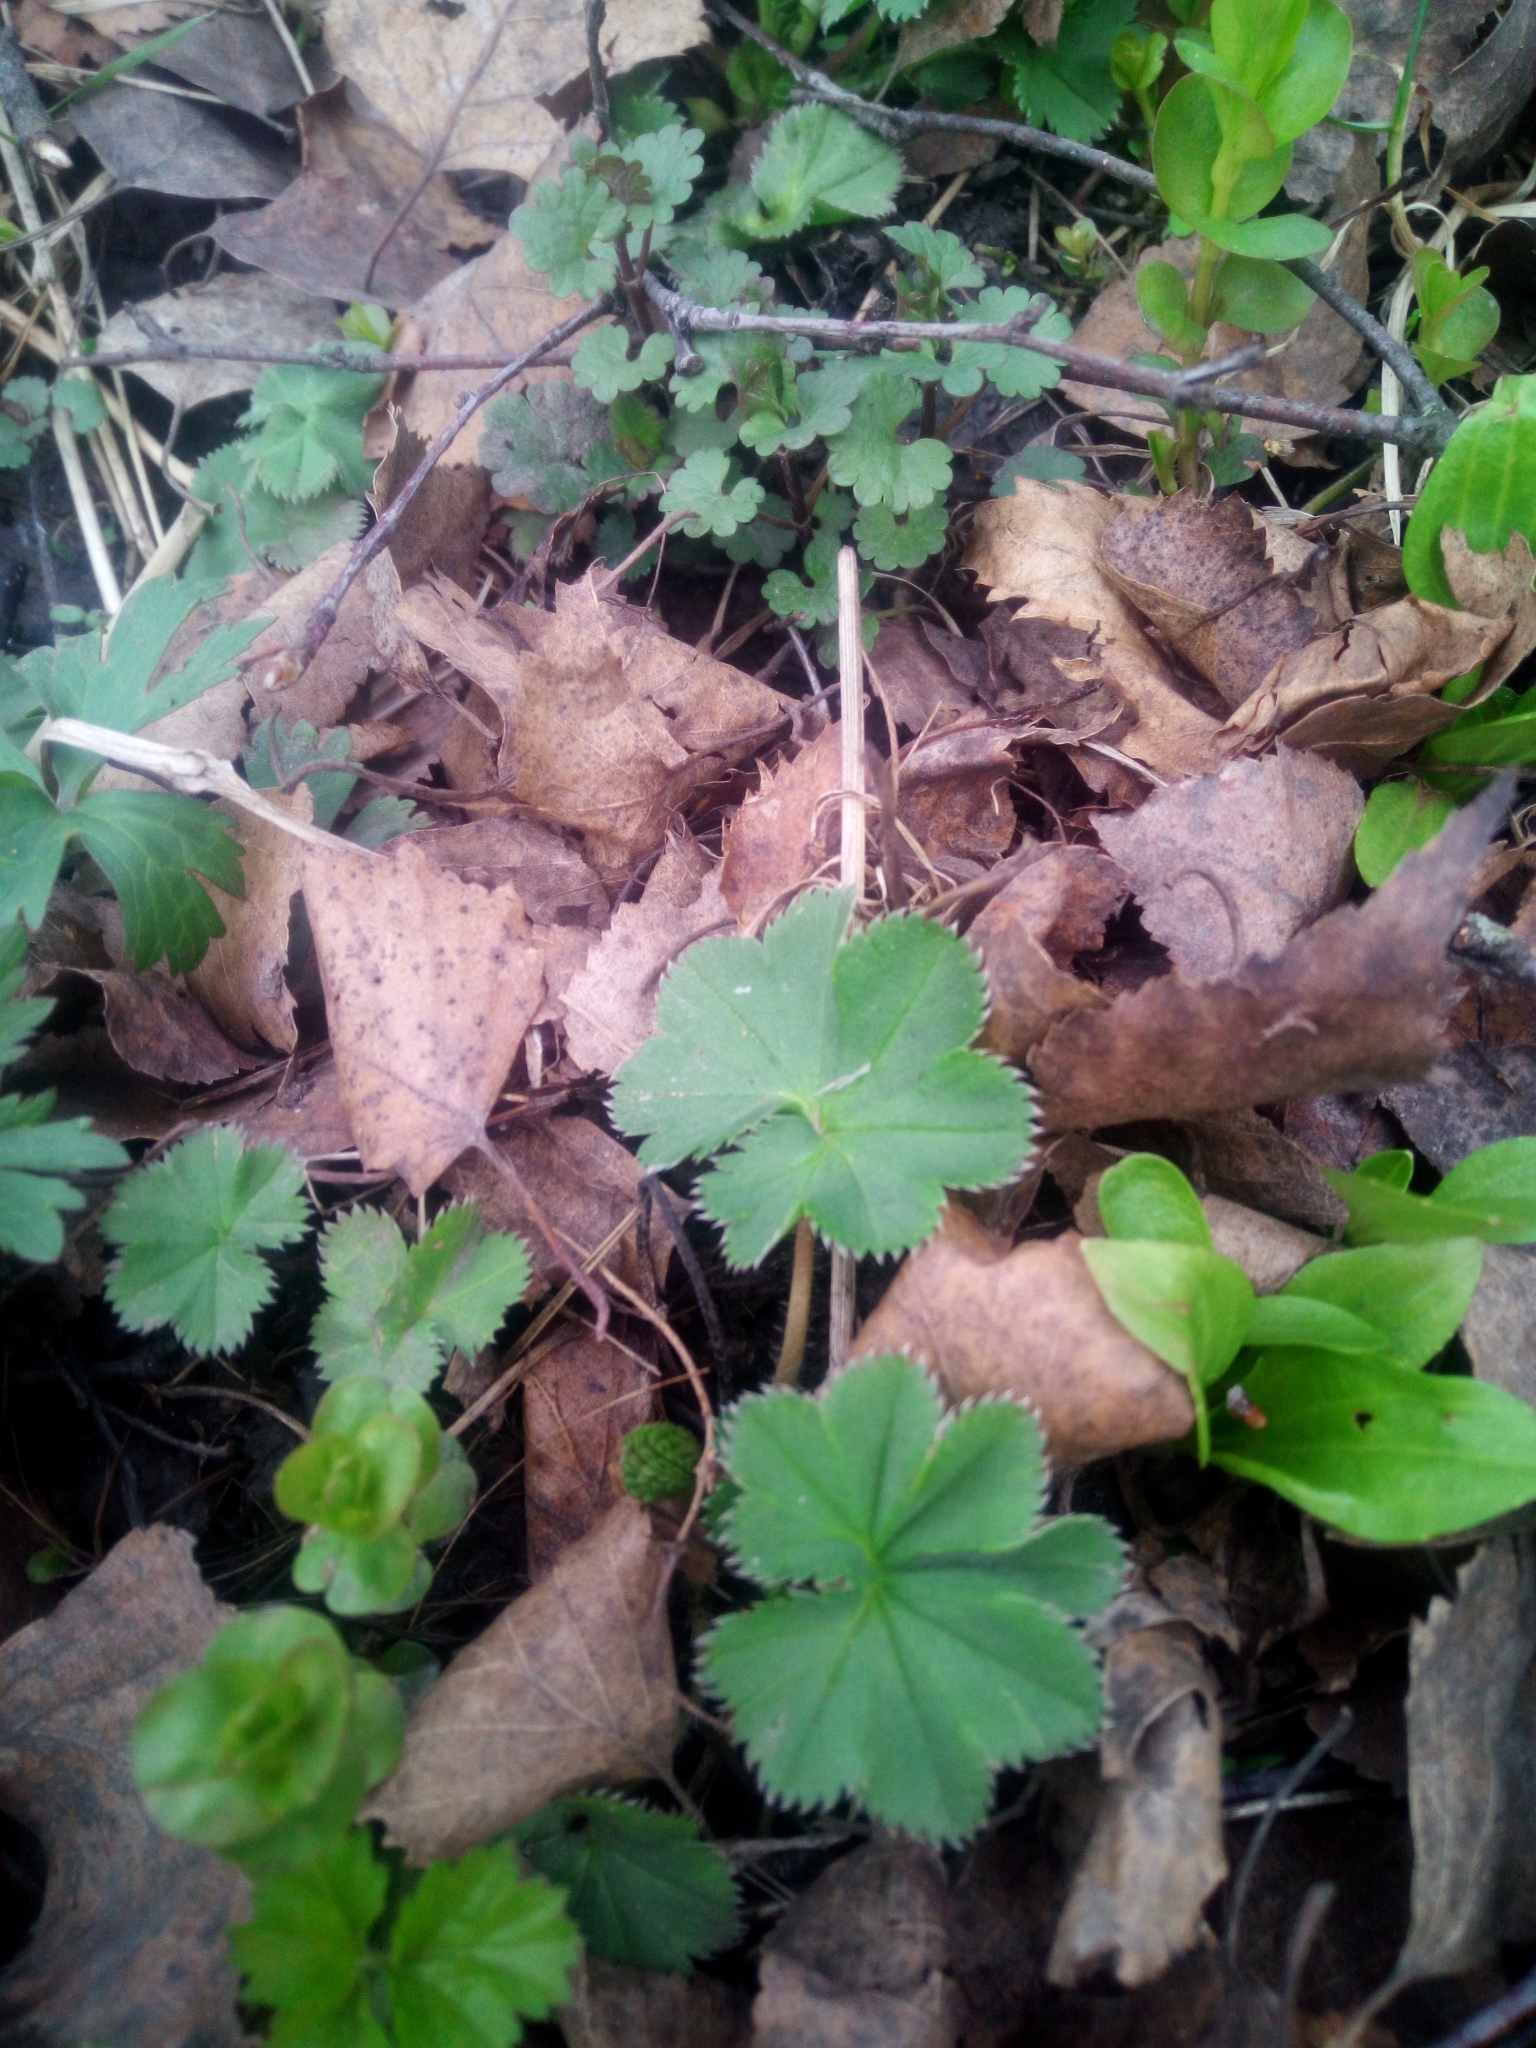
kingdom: Plantae
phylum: Tracheophyta
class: Magnoliopsida
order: Rosales
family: Rosaceae
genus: Alchemilla
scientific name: Alchemilla
